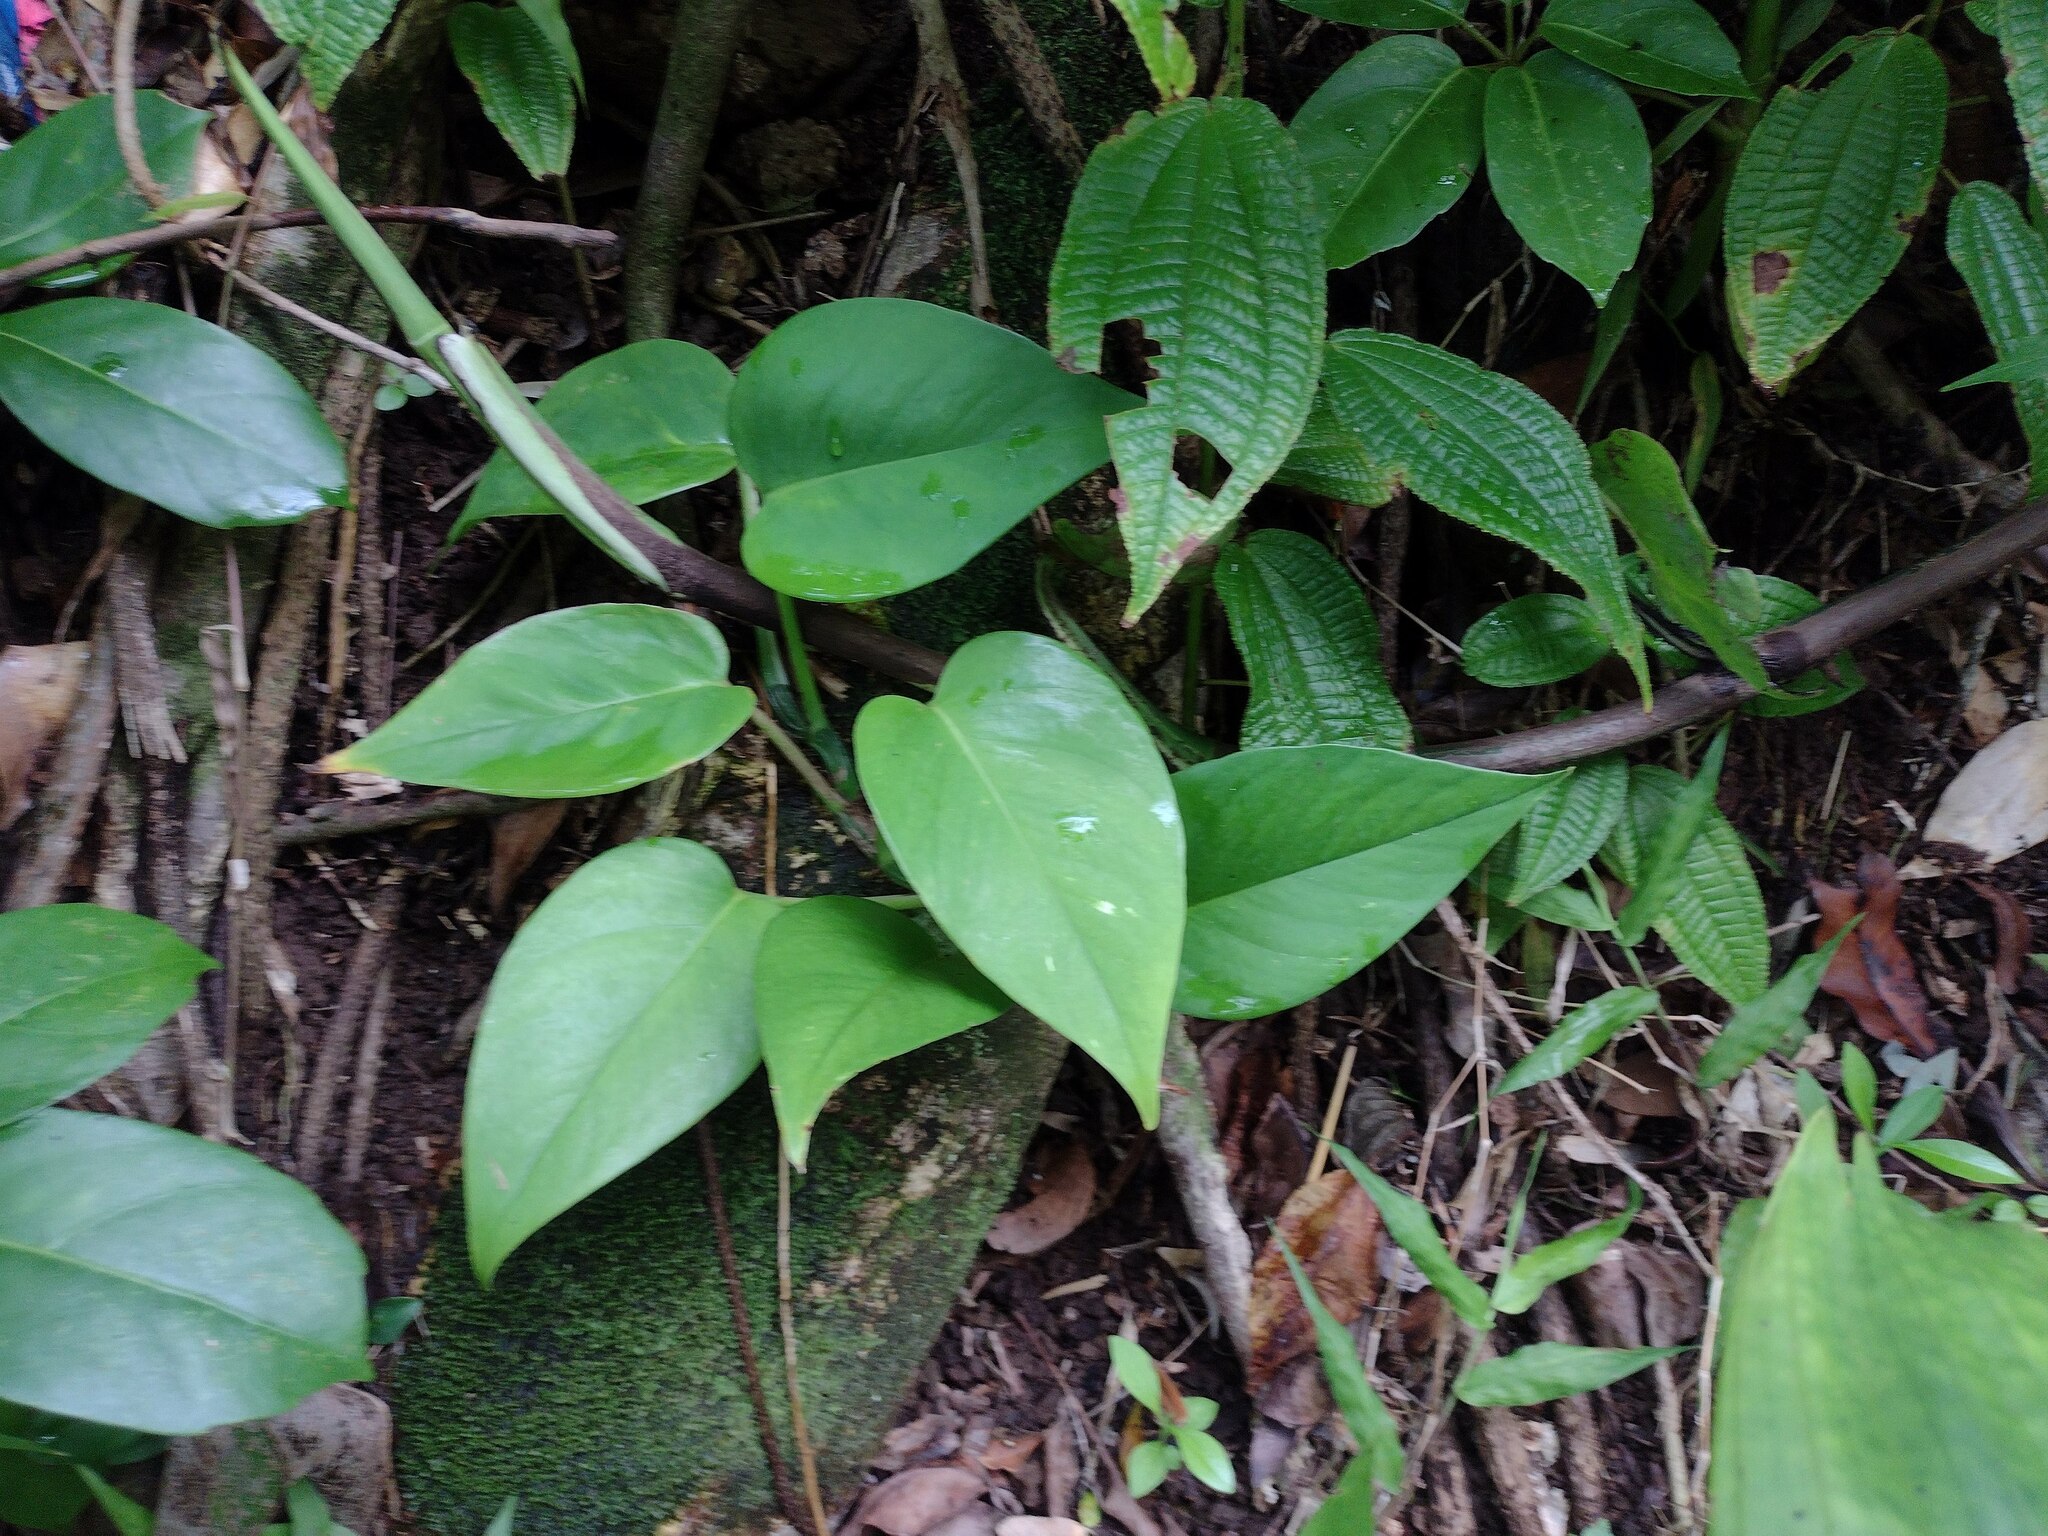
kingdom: Plantae
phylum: Tracheophyta
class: Liliopsida
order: Alismatales
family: Araceae
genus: Epipremnum
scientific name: Epipremnum aureum
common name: Golden hunter's-robe
